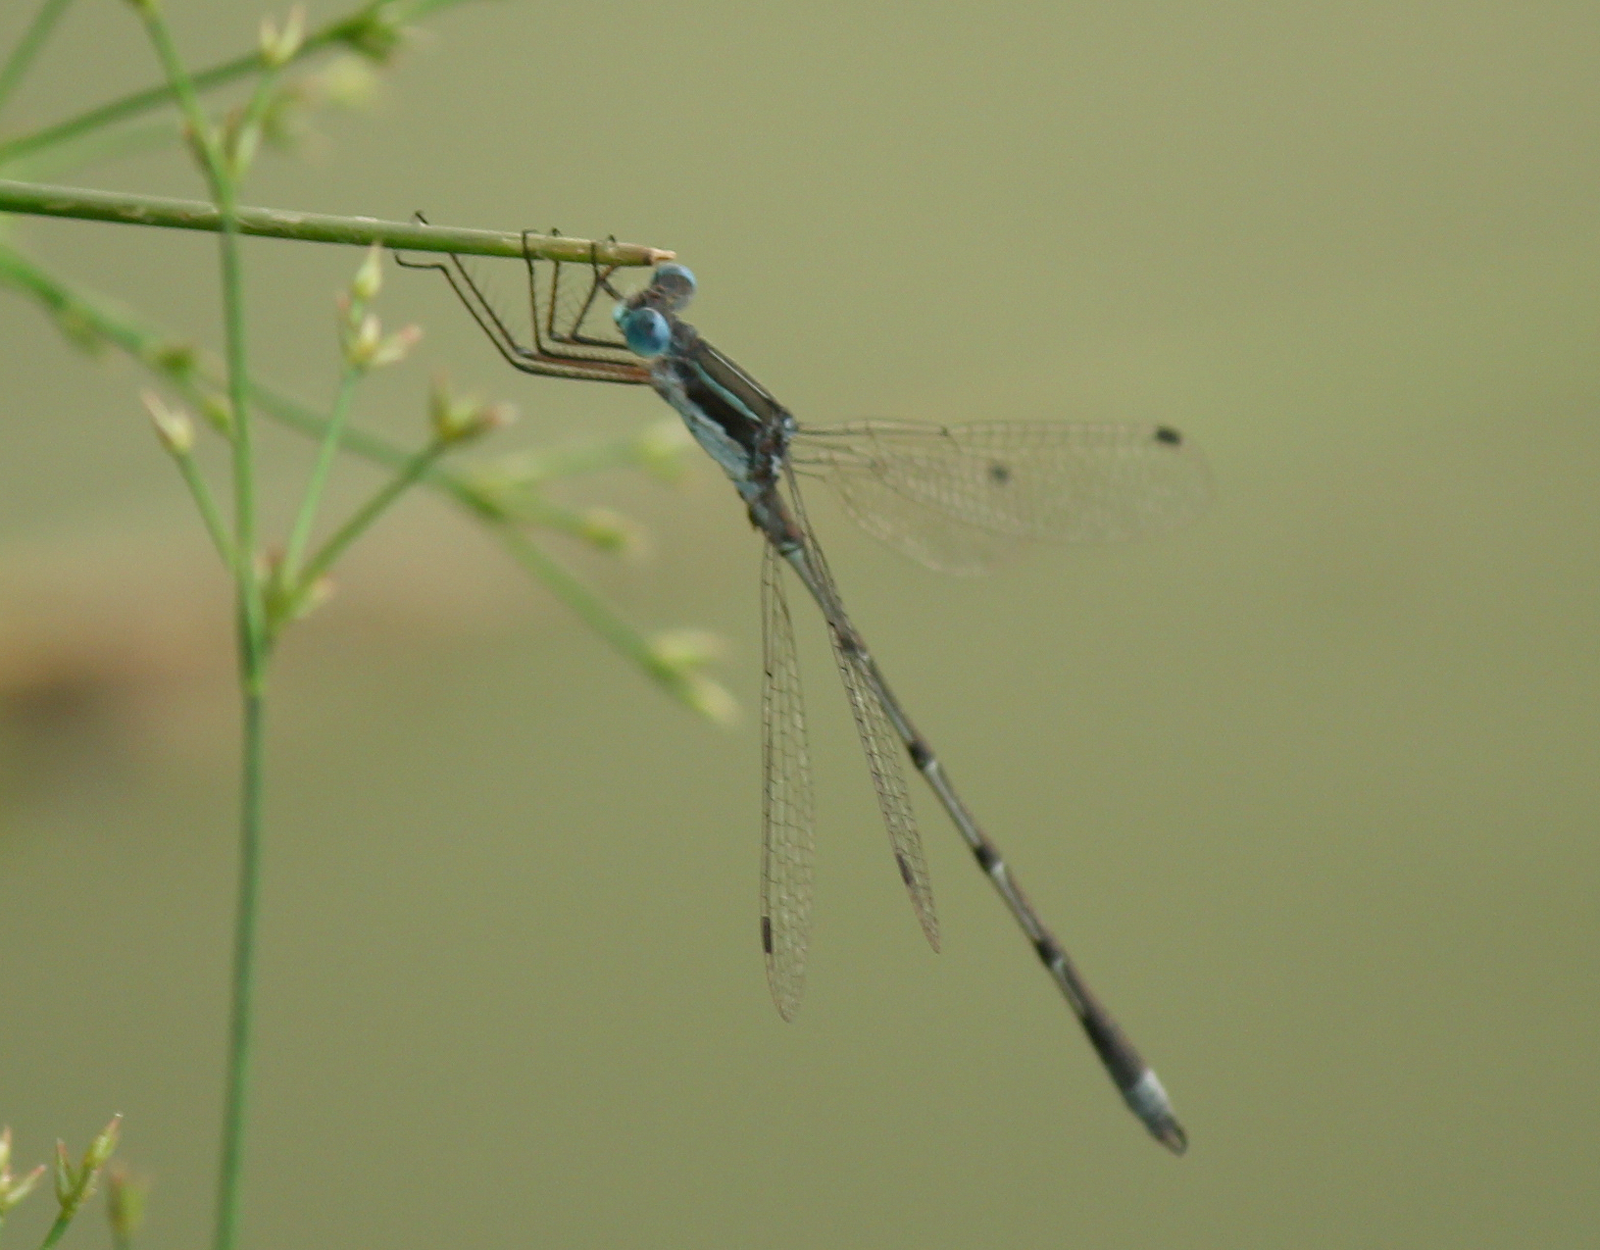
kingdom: Animalia
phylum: Arthropoda
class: Insecta
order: Odonata
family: Lestidae
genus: Lestes
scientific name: Lestes australis
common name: Southern spreadwing
